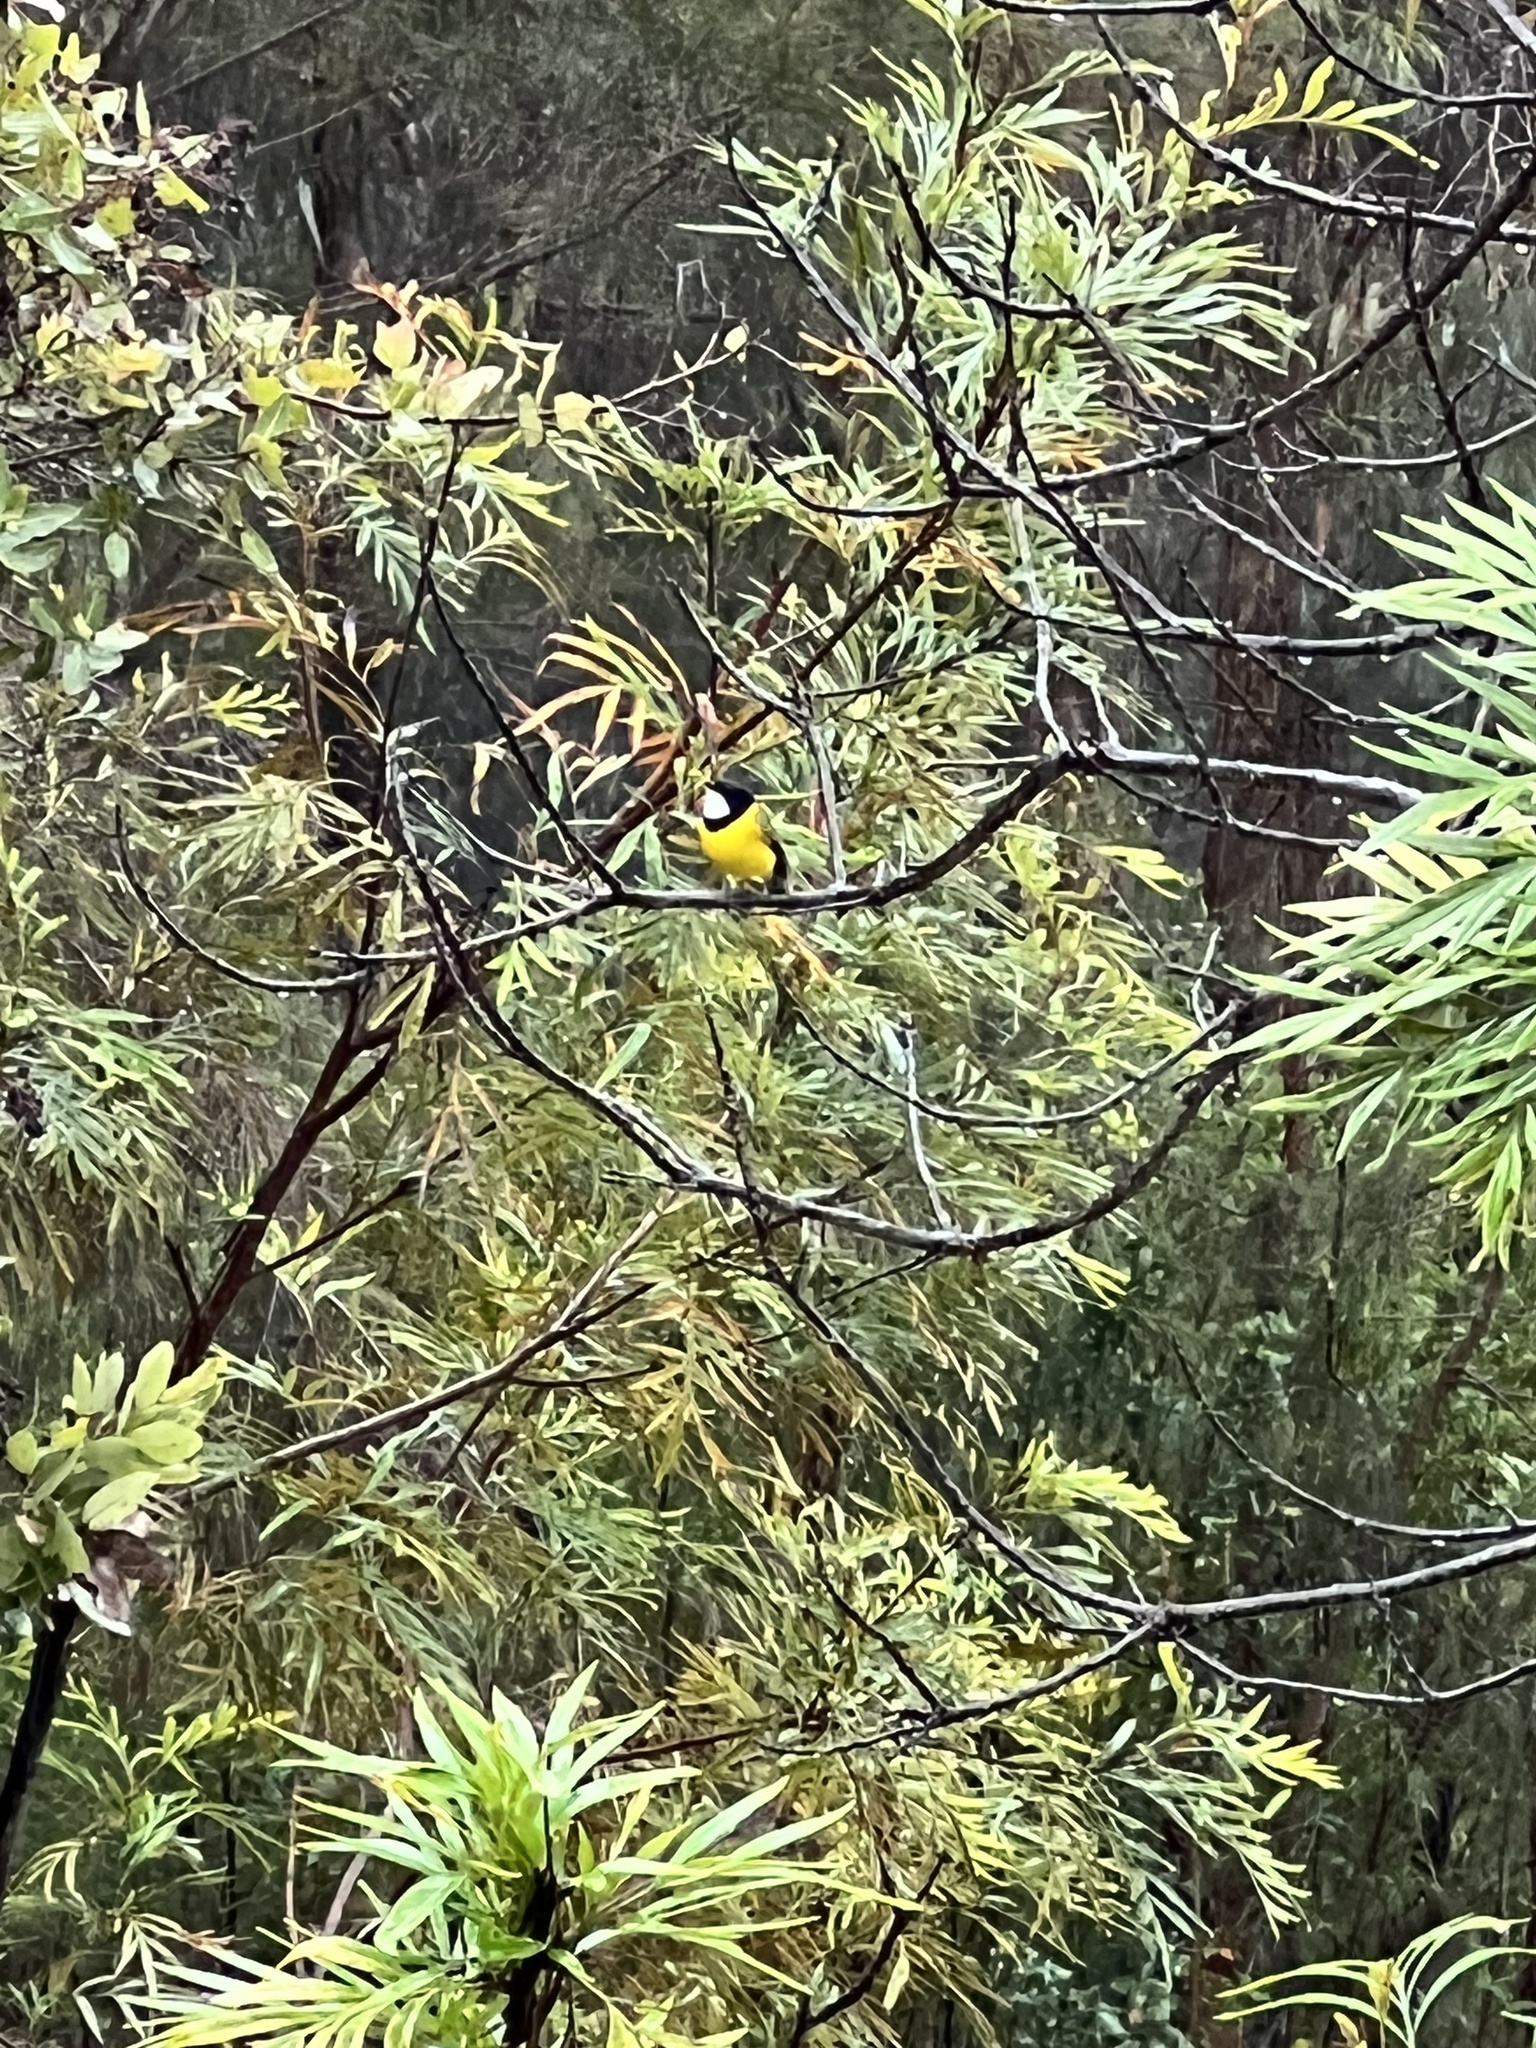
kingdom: Animalia
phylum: Chordata
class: Aves
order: Passeriformes
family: Pachycephalidae
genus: Pachycephala
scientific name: Pachycephala pectoralis
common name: Australian golden whistler
